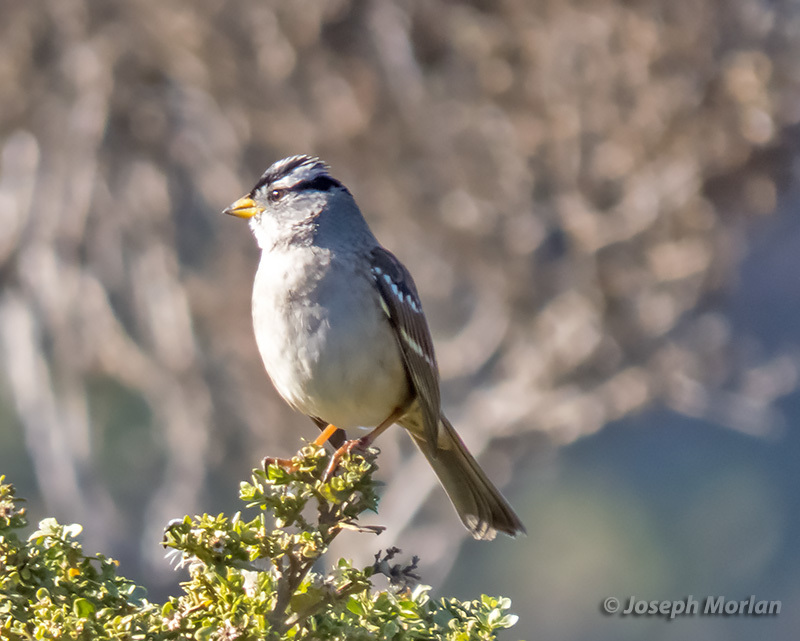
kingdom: Animalia
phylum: Chordata
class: Aves
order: Passeriformes
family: Passerellidae
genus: Zonotrichia
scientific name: Zonotrichia leucophrys
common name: White-crowned sparrow
